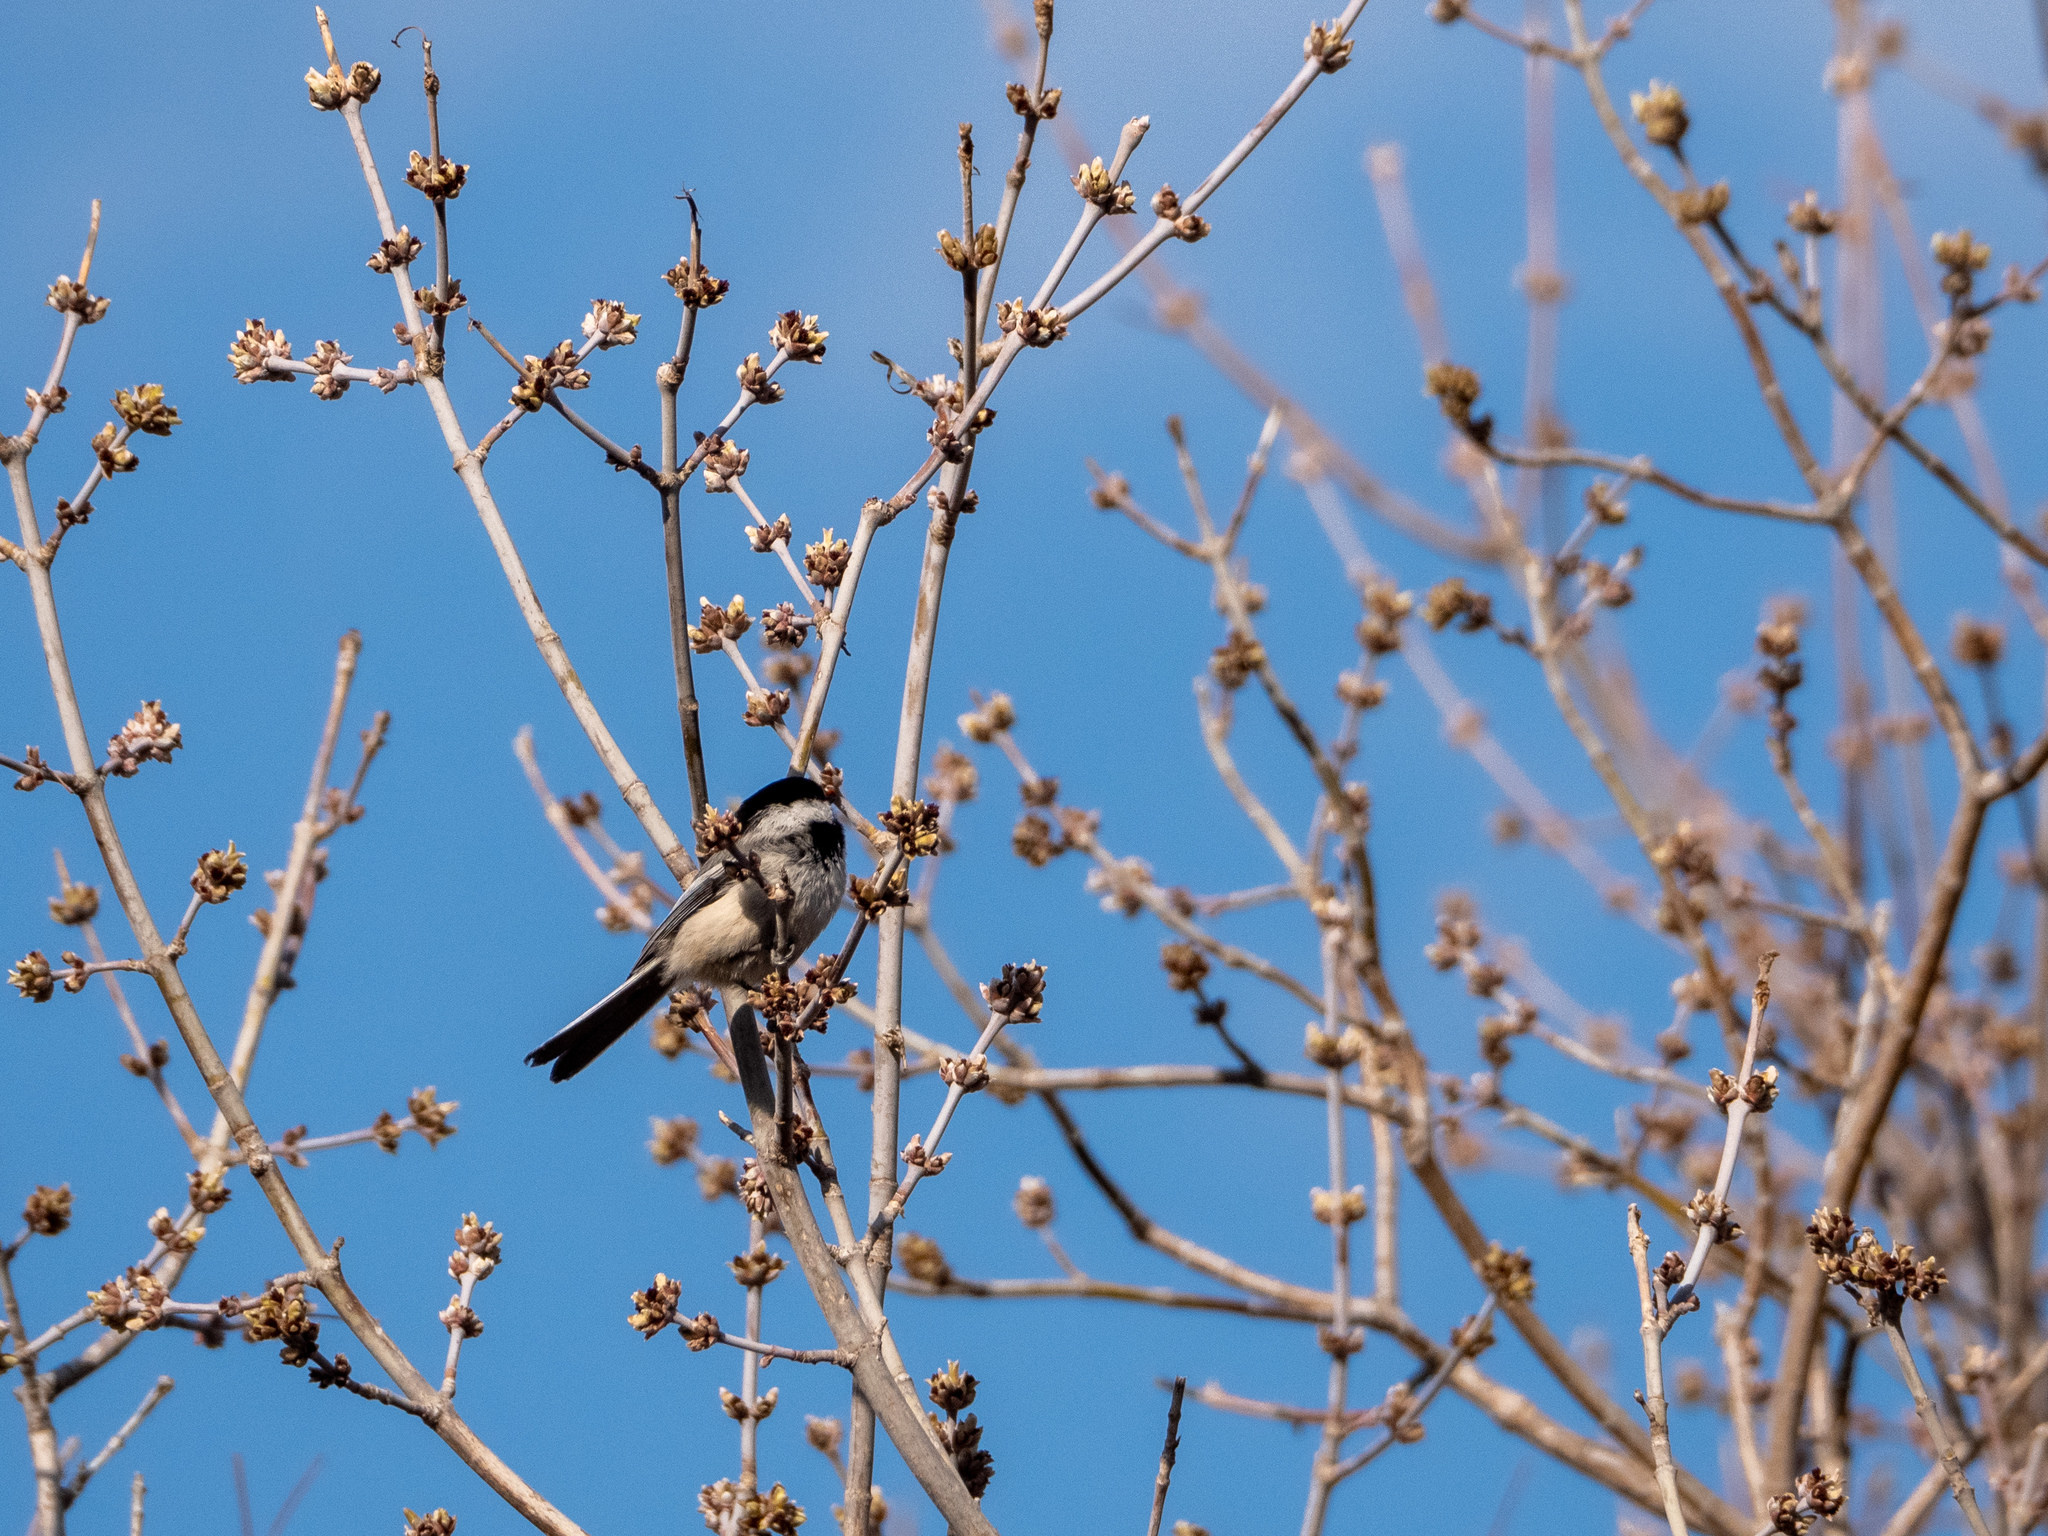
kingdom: Animalia
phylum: Chordata
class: Aves
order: Passeriformes
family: Paridae
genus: Poecile
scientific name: Poecile atricapillus
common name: Black-capped chickadee
